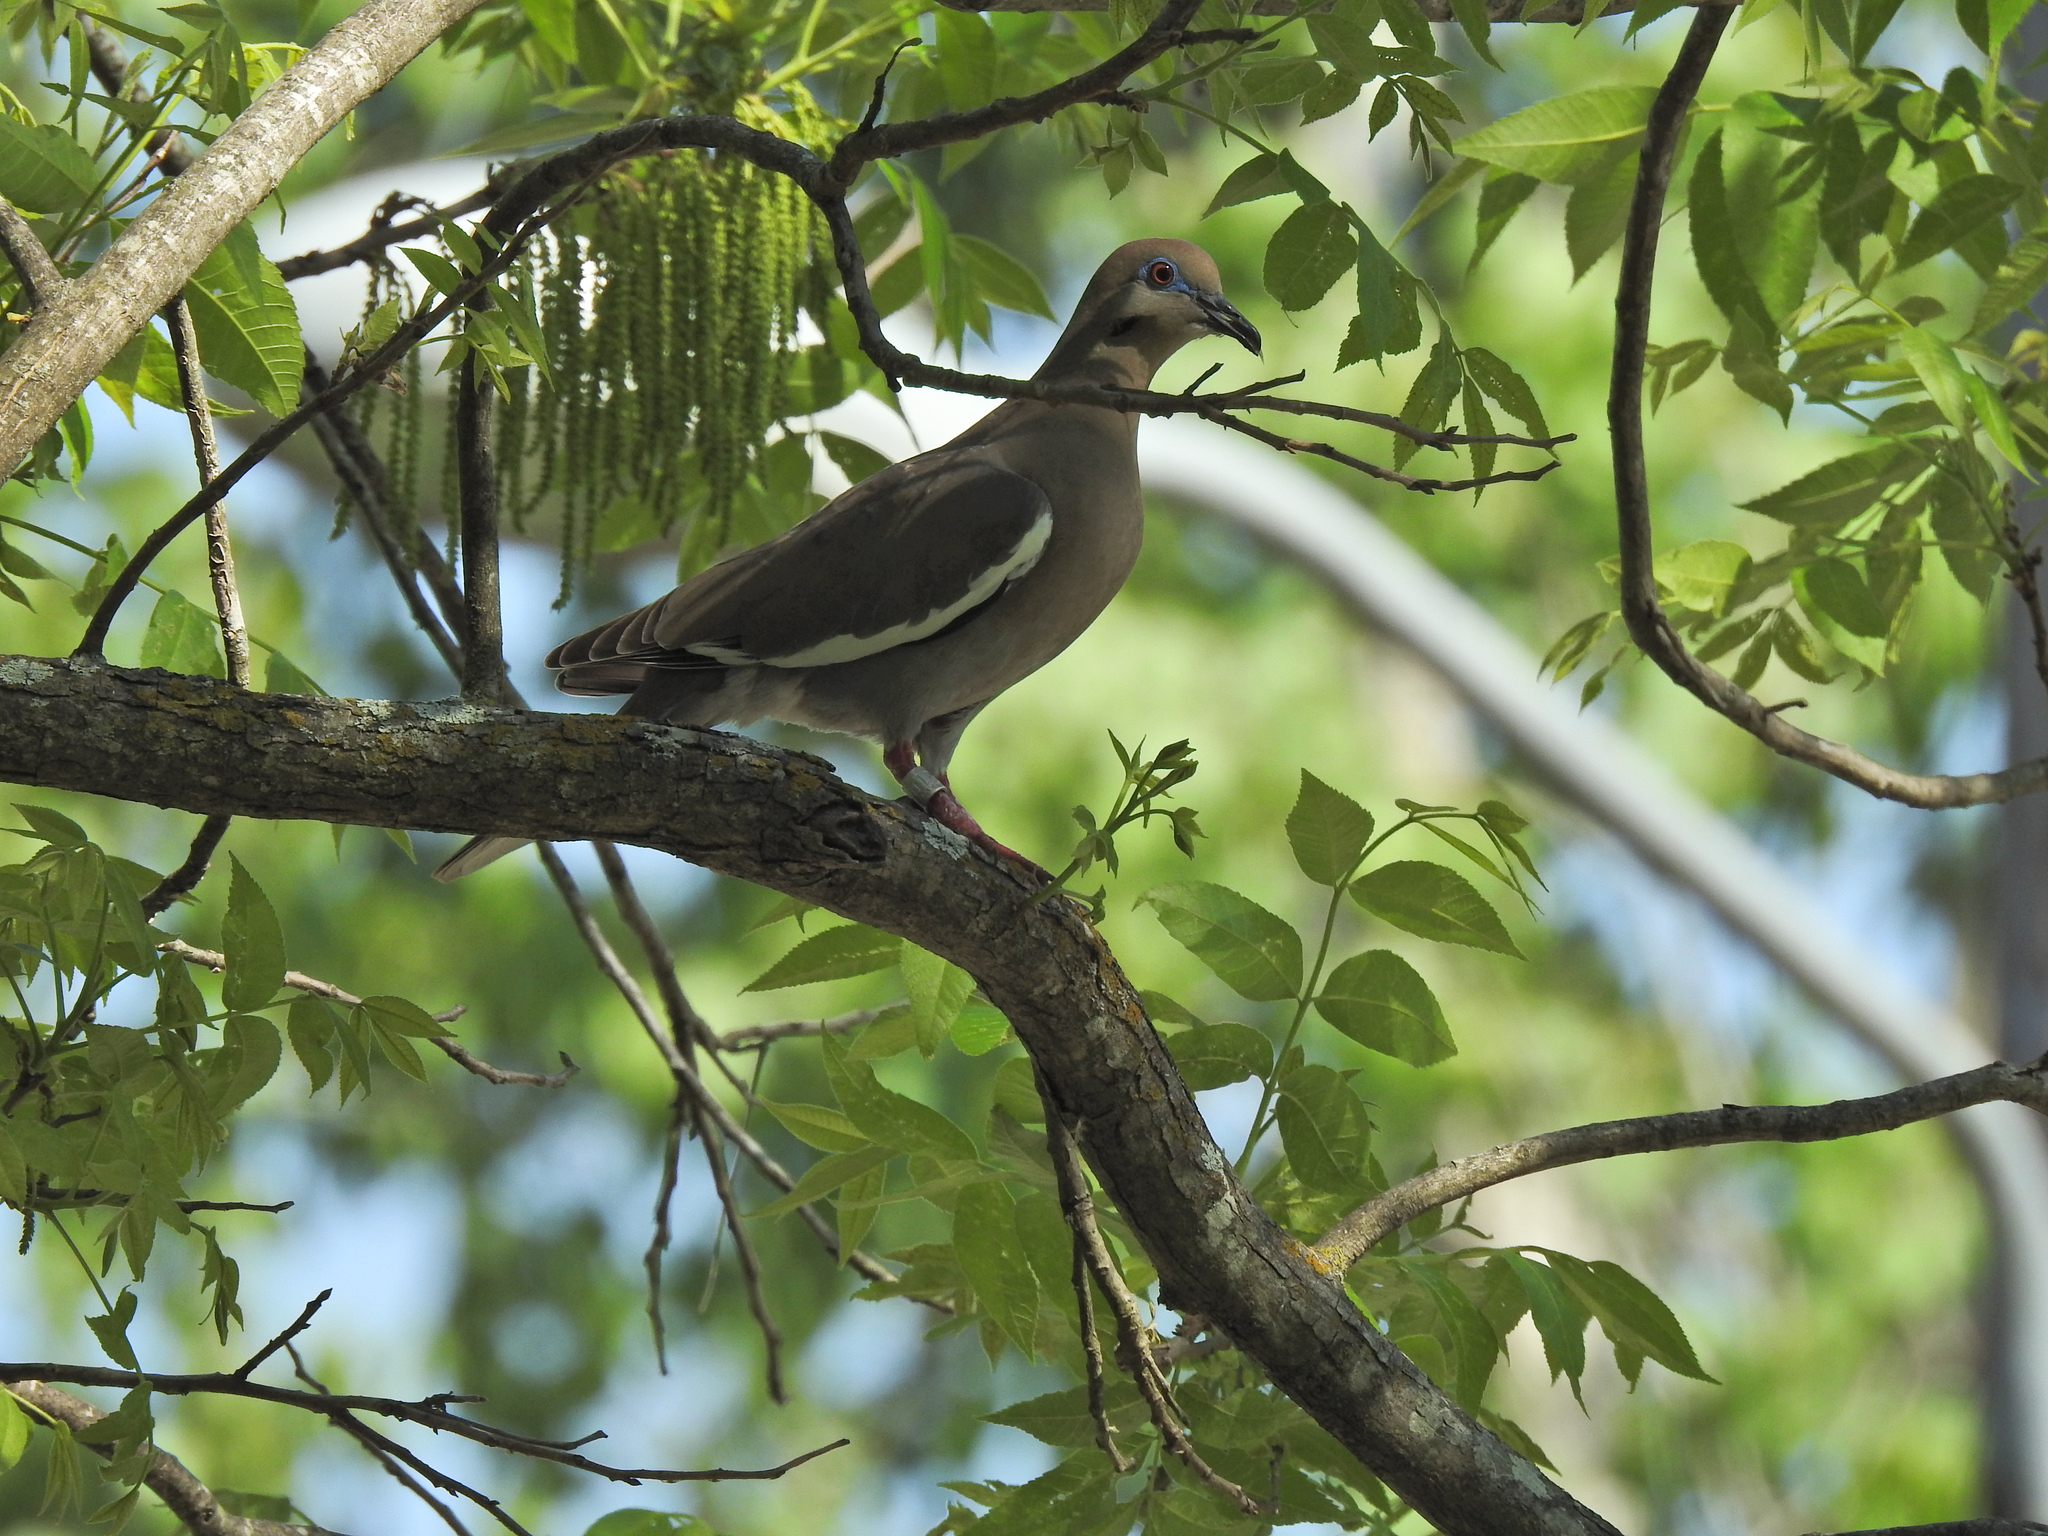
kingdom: Animalia
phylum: Chordata
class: Aves
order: Columbiformes
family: Columbidae
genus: Zenaida
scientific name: Zenaida asiatica
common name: White-winged dove
